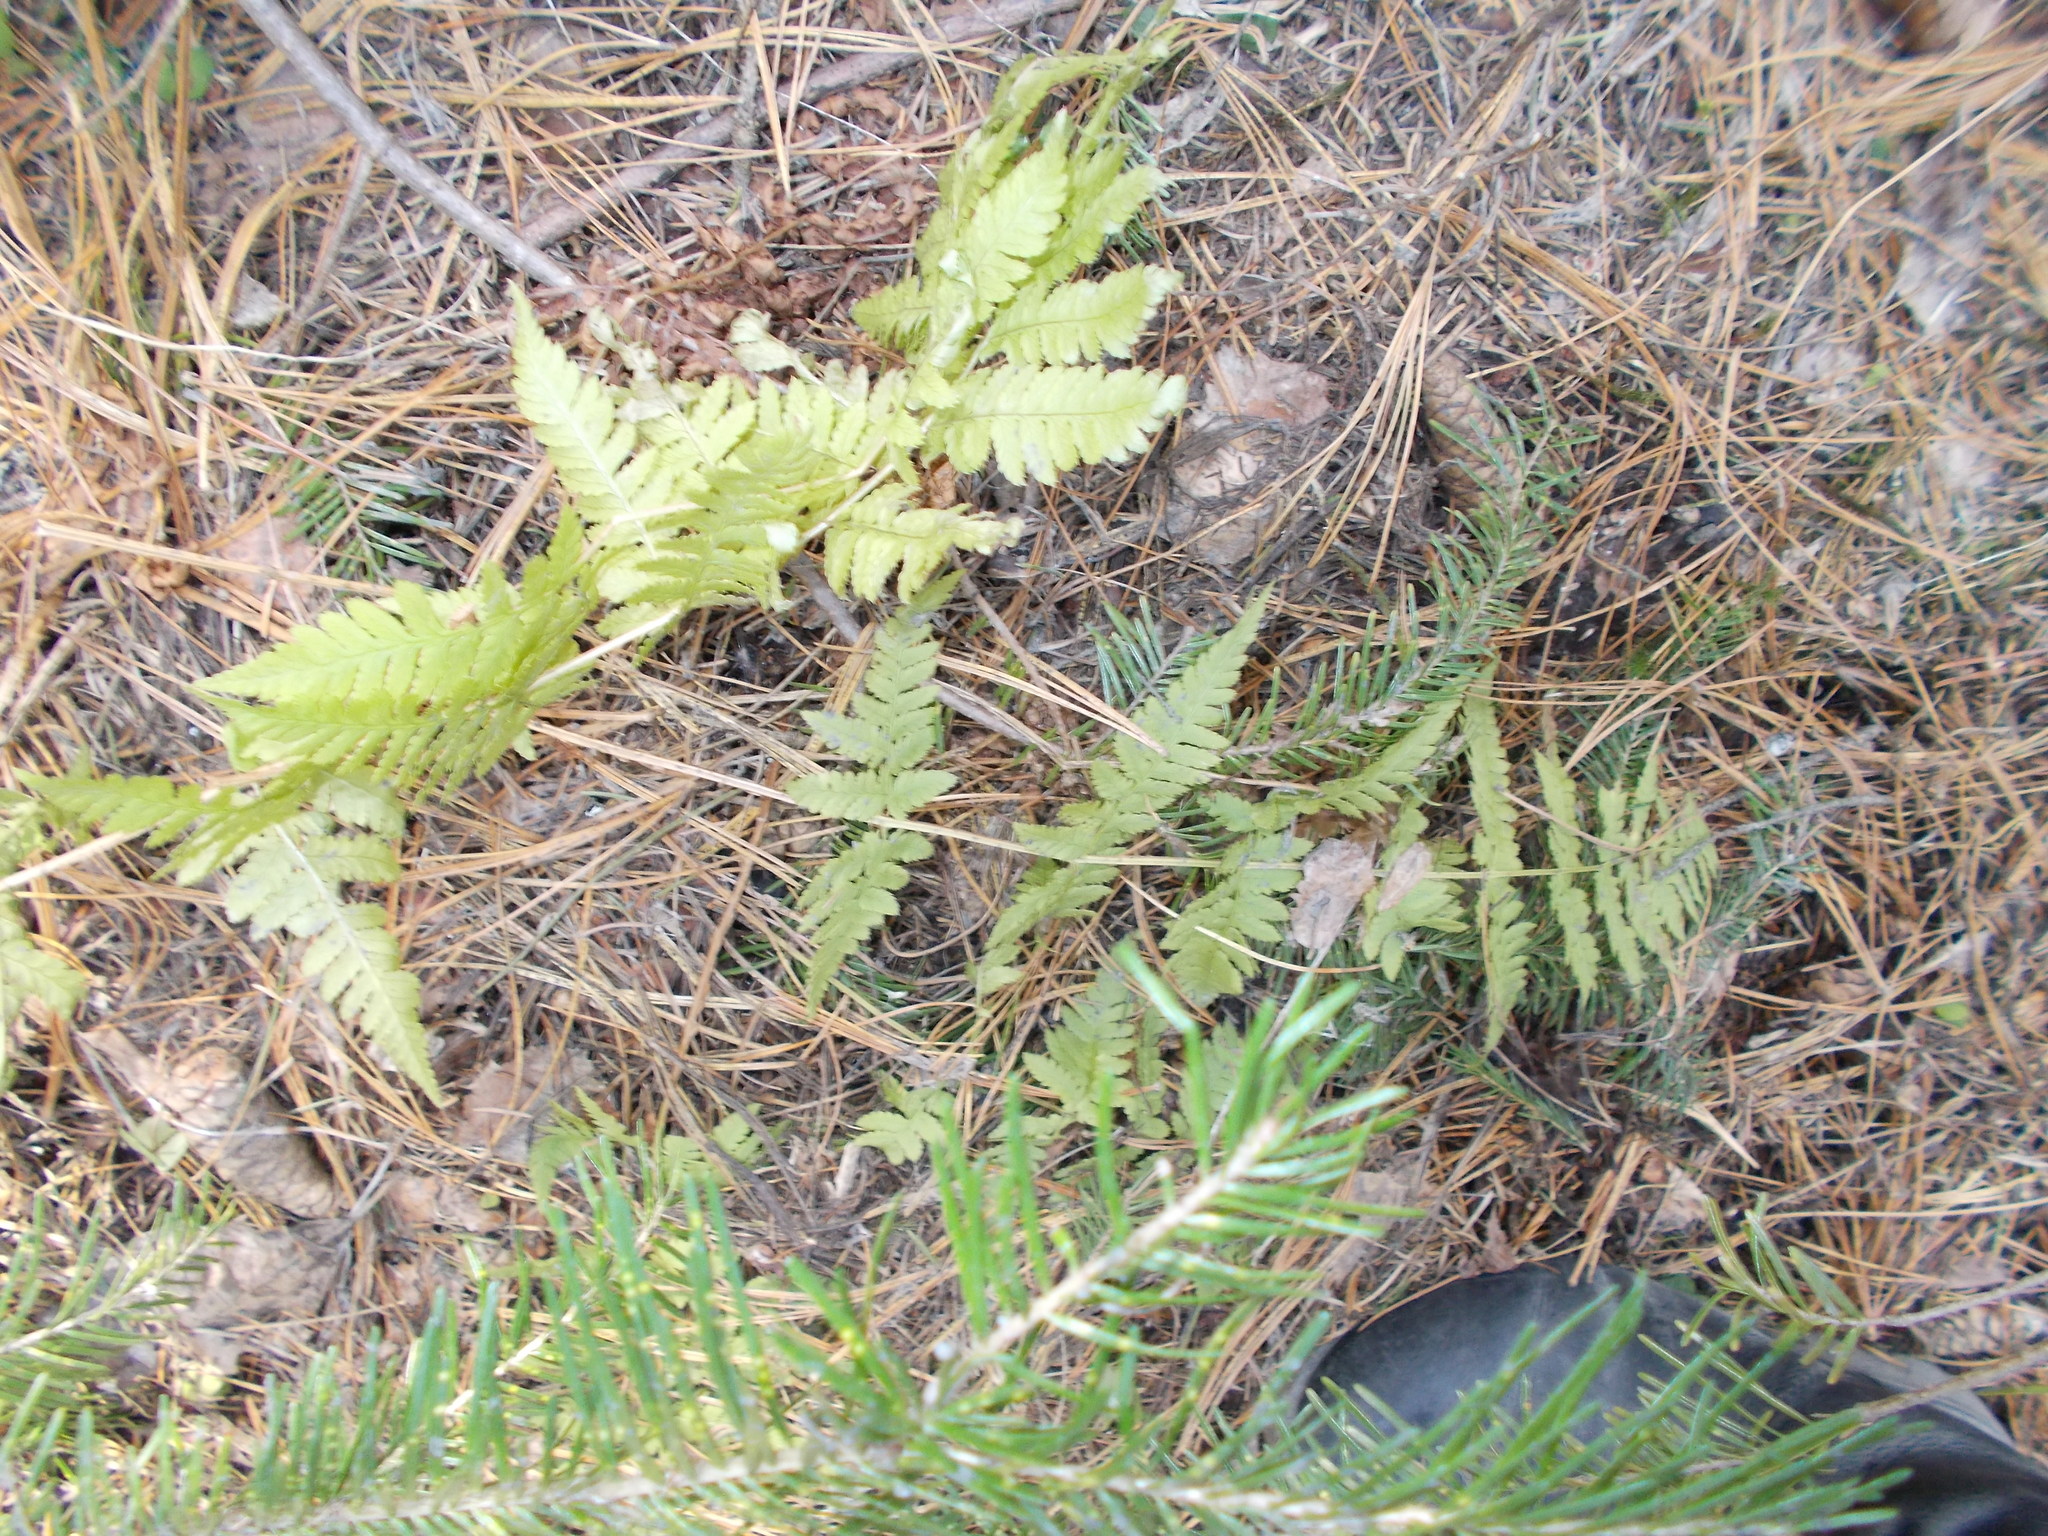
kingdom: Plantae
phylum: Tracheophyta
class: Polypodiopsida
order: Polypodiales
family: Dryopteridaceae
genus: Dryopteris
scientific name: Dryopteris carthusiana
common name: Narrow buckler-fern
